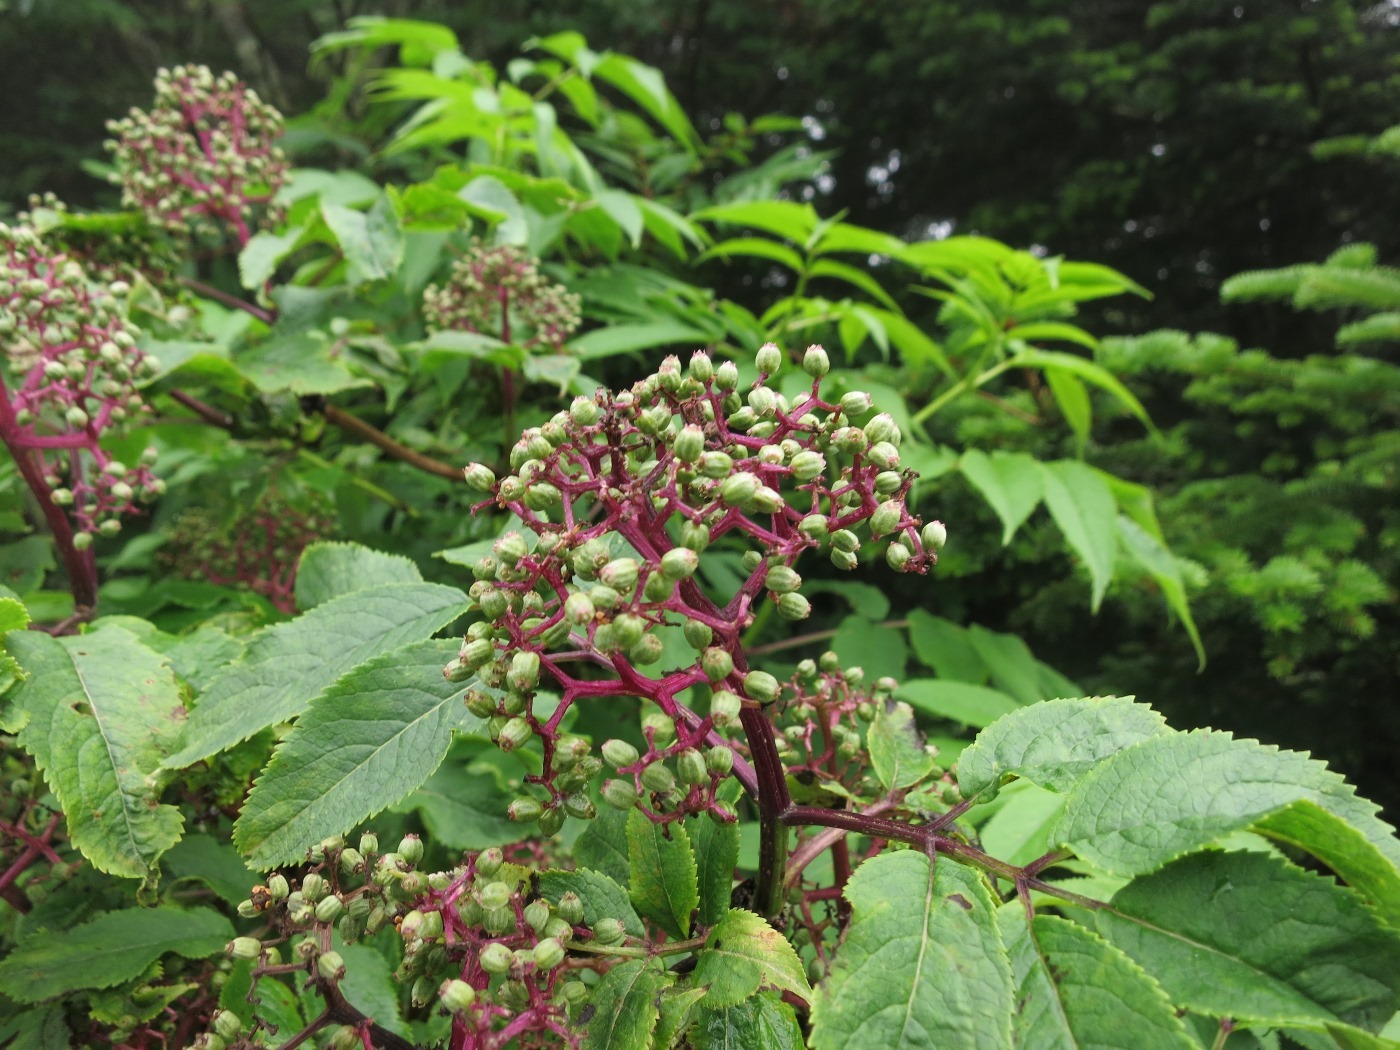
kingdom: Plantae
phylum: Tracheophyta
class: Magnoliopsida
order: Dipsacales
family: Viburnaceae
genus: Sambucus
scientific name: Sambucus racemosa
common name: Red-berried elder
